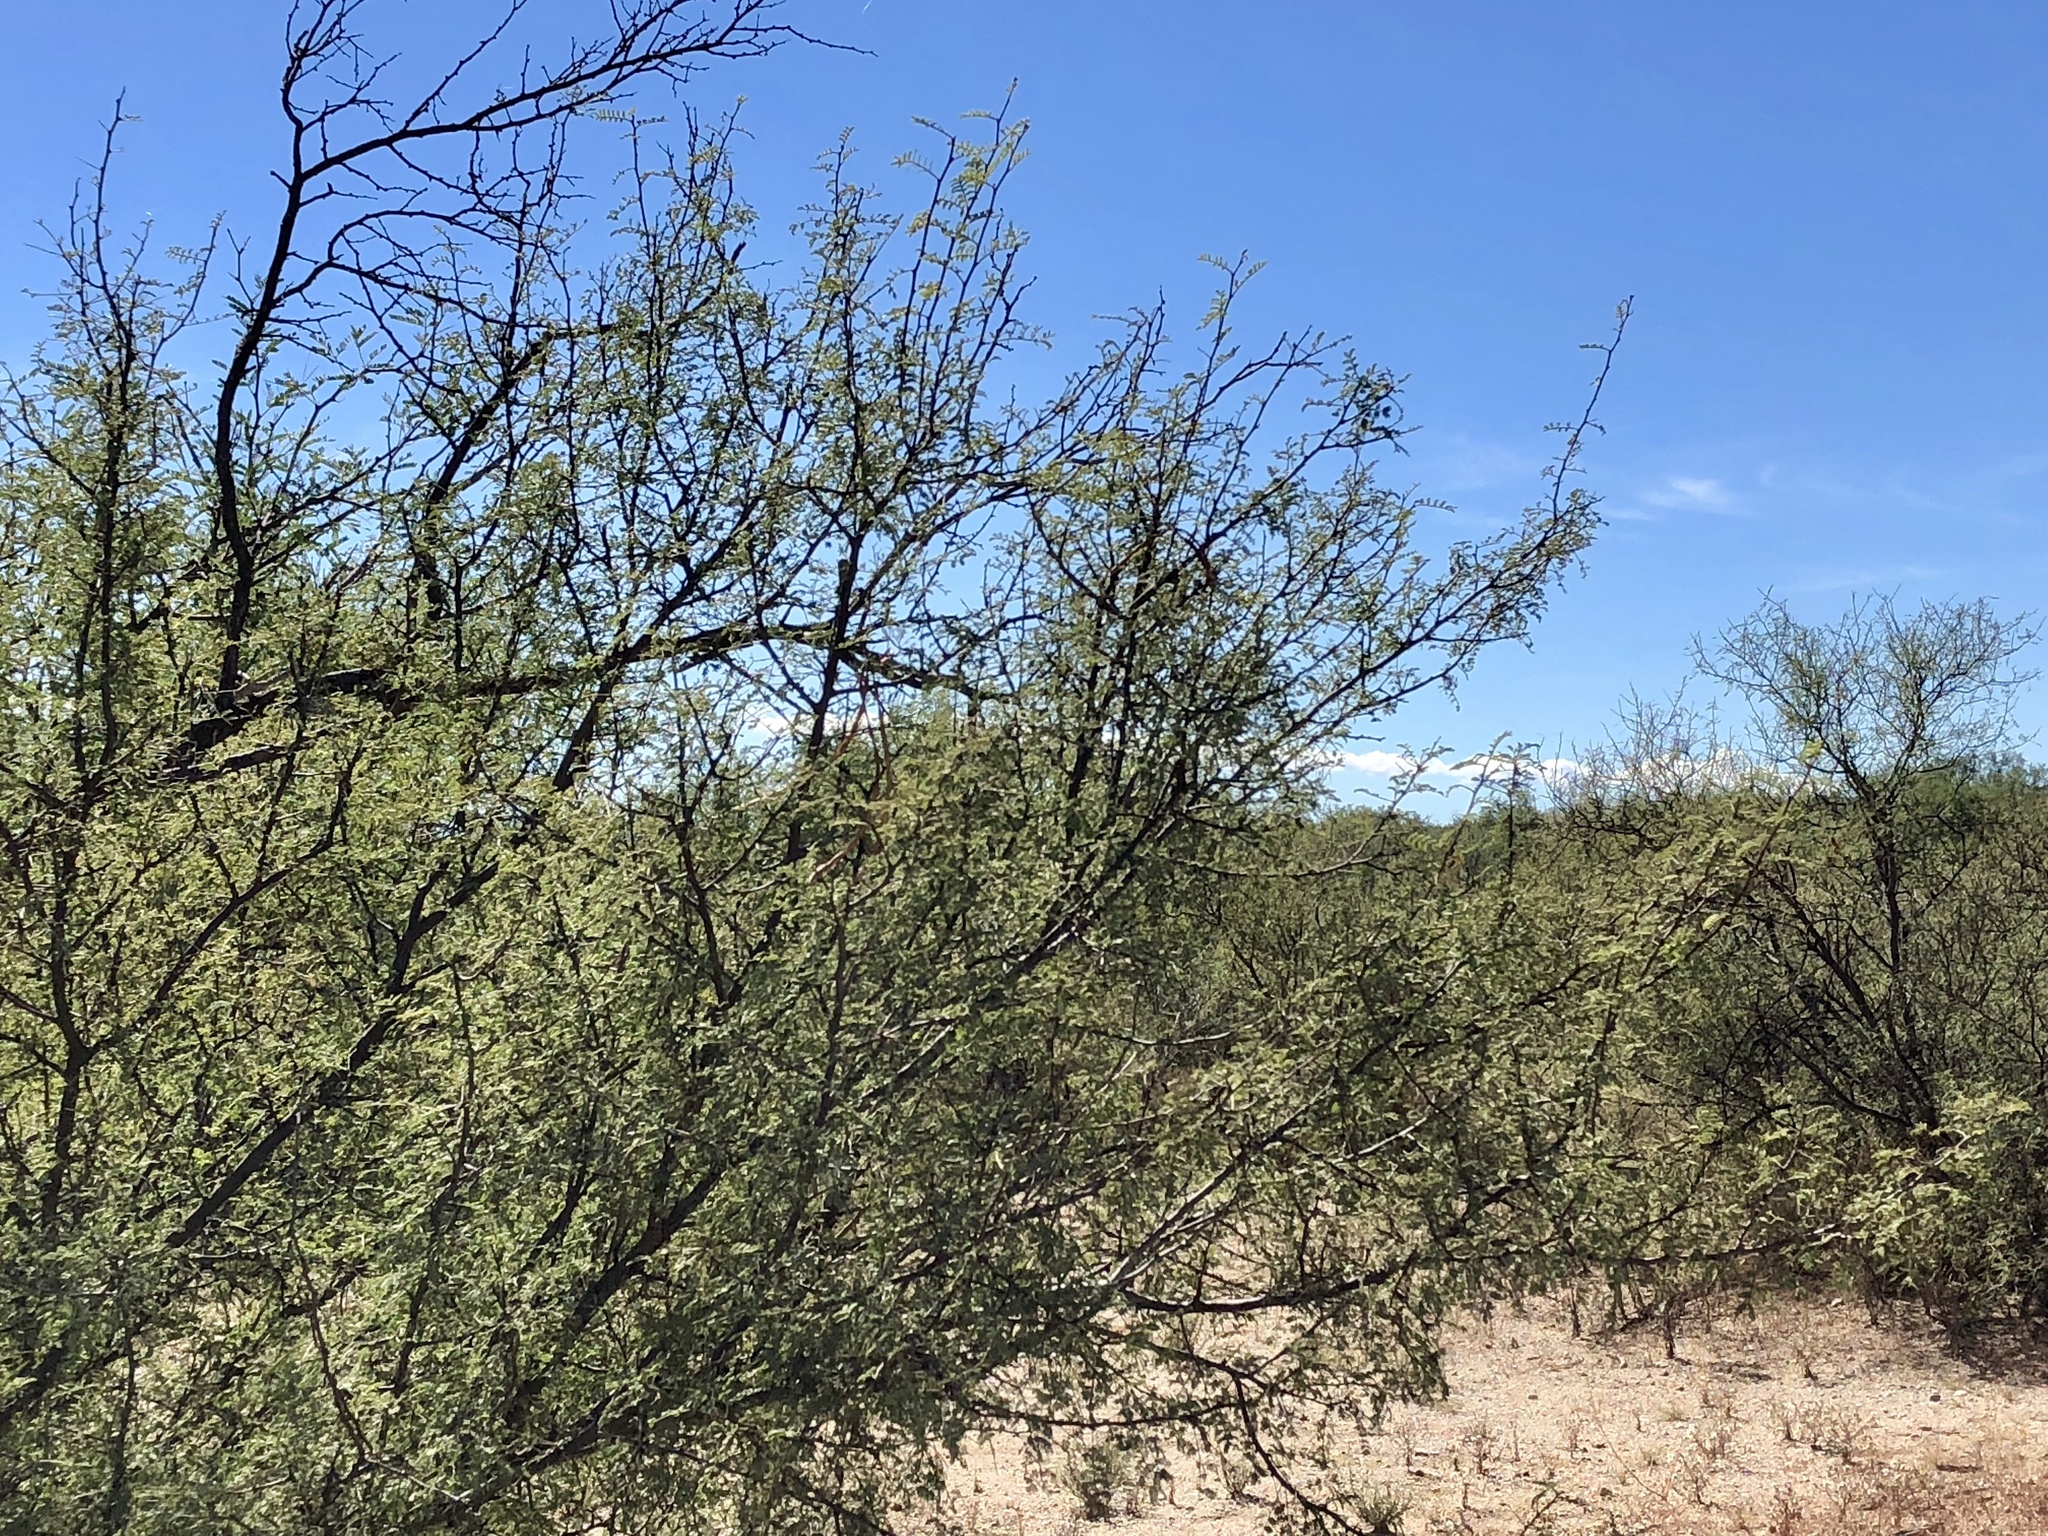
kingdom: Plantae
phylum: Tracheophyta
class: Magnoliopsida
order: Fabales
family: Fabaceae
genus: Vachellia
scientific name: Vachellia constricta
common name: Mescat acacia
